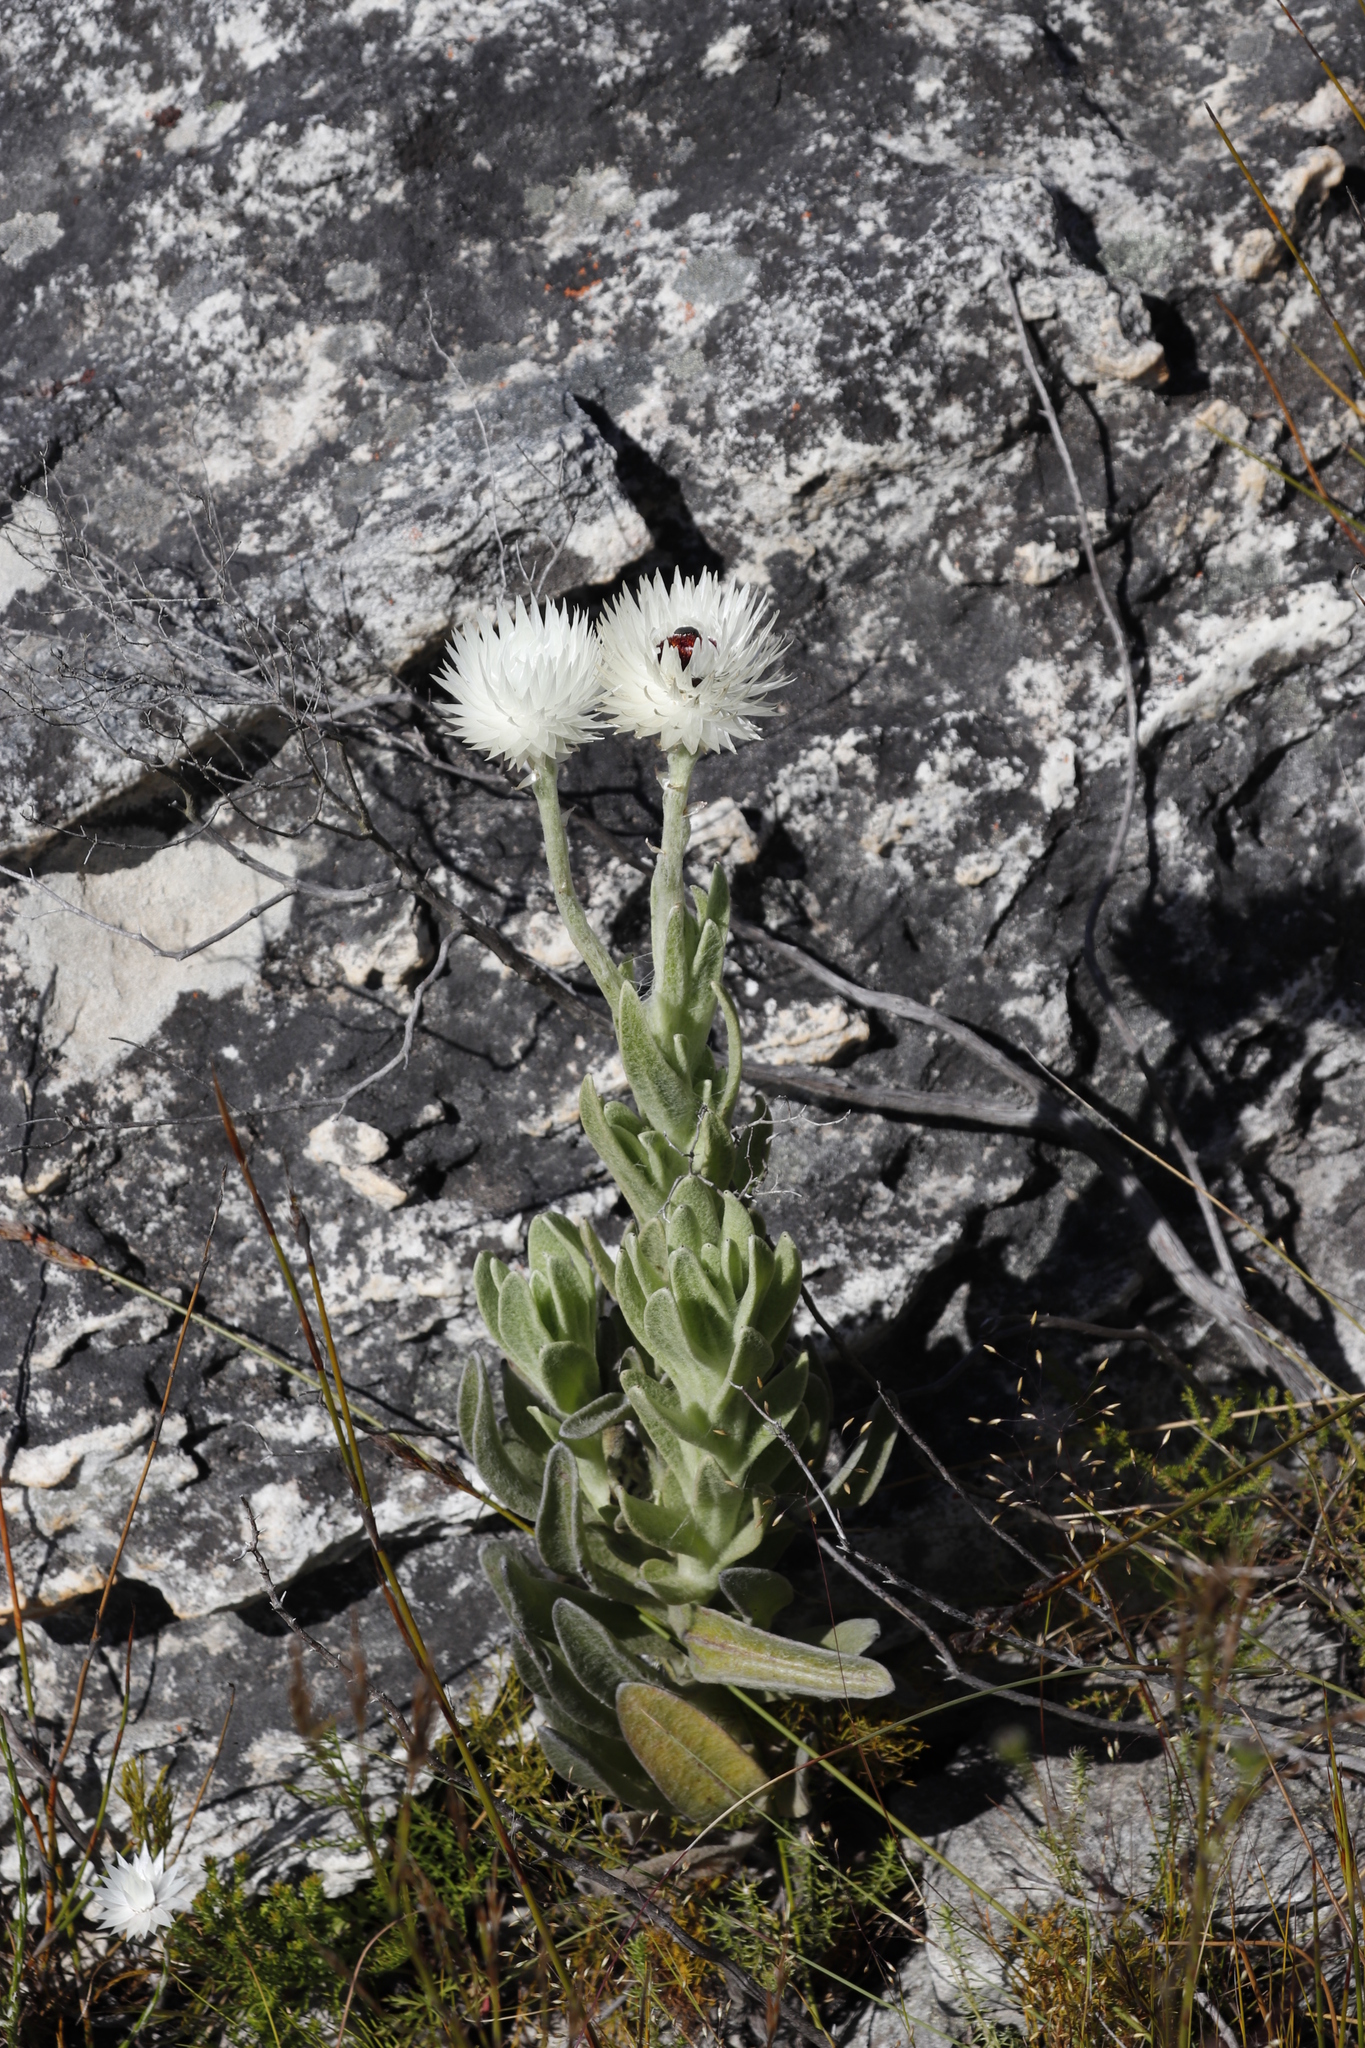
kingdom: Plantae
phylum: Tracheophyta
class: Magnoliopsida
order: Asterales
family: Asteraceae
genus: Syncarpha
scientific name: Syncarpha vestita
